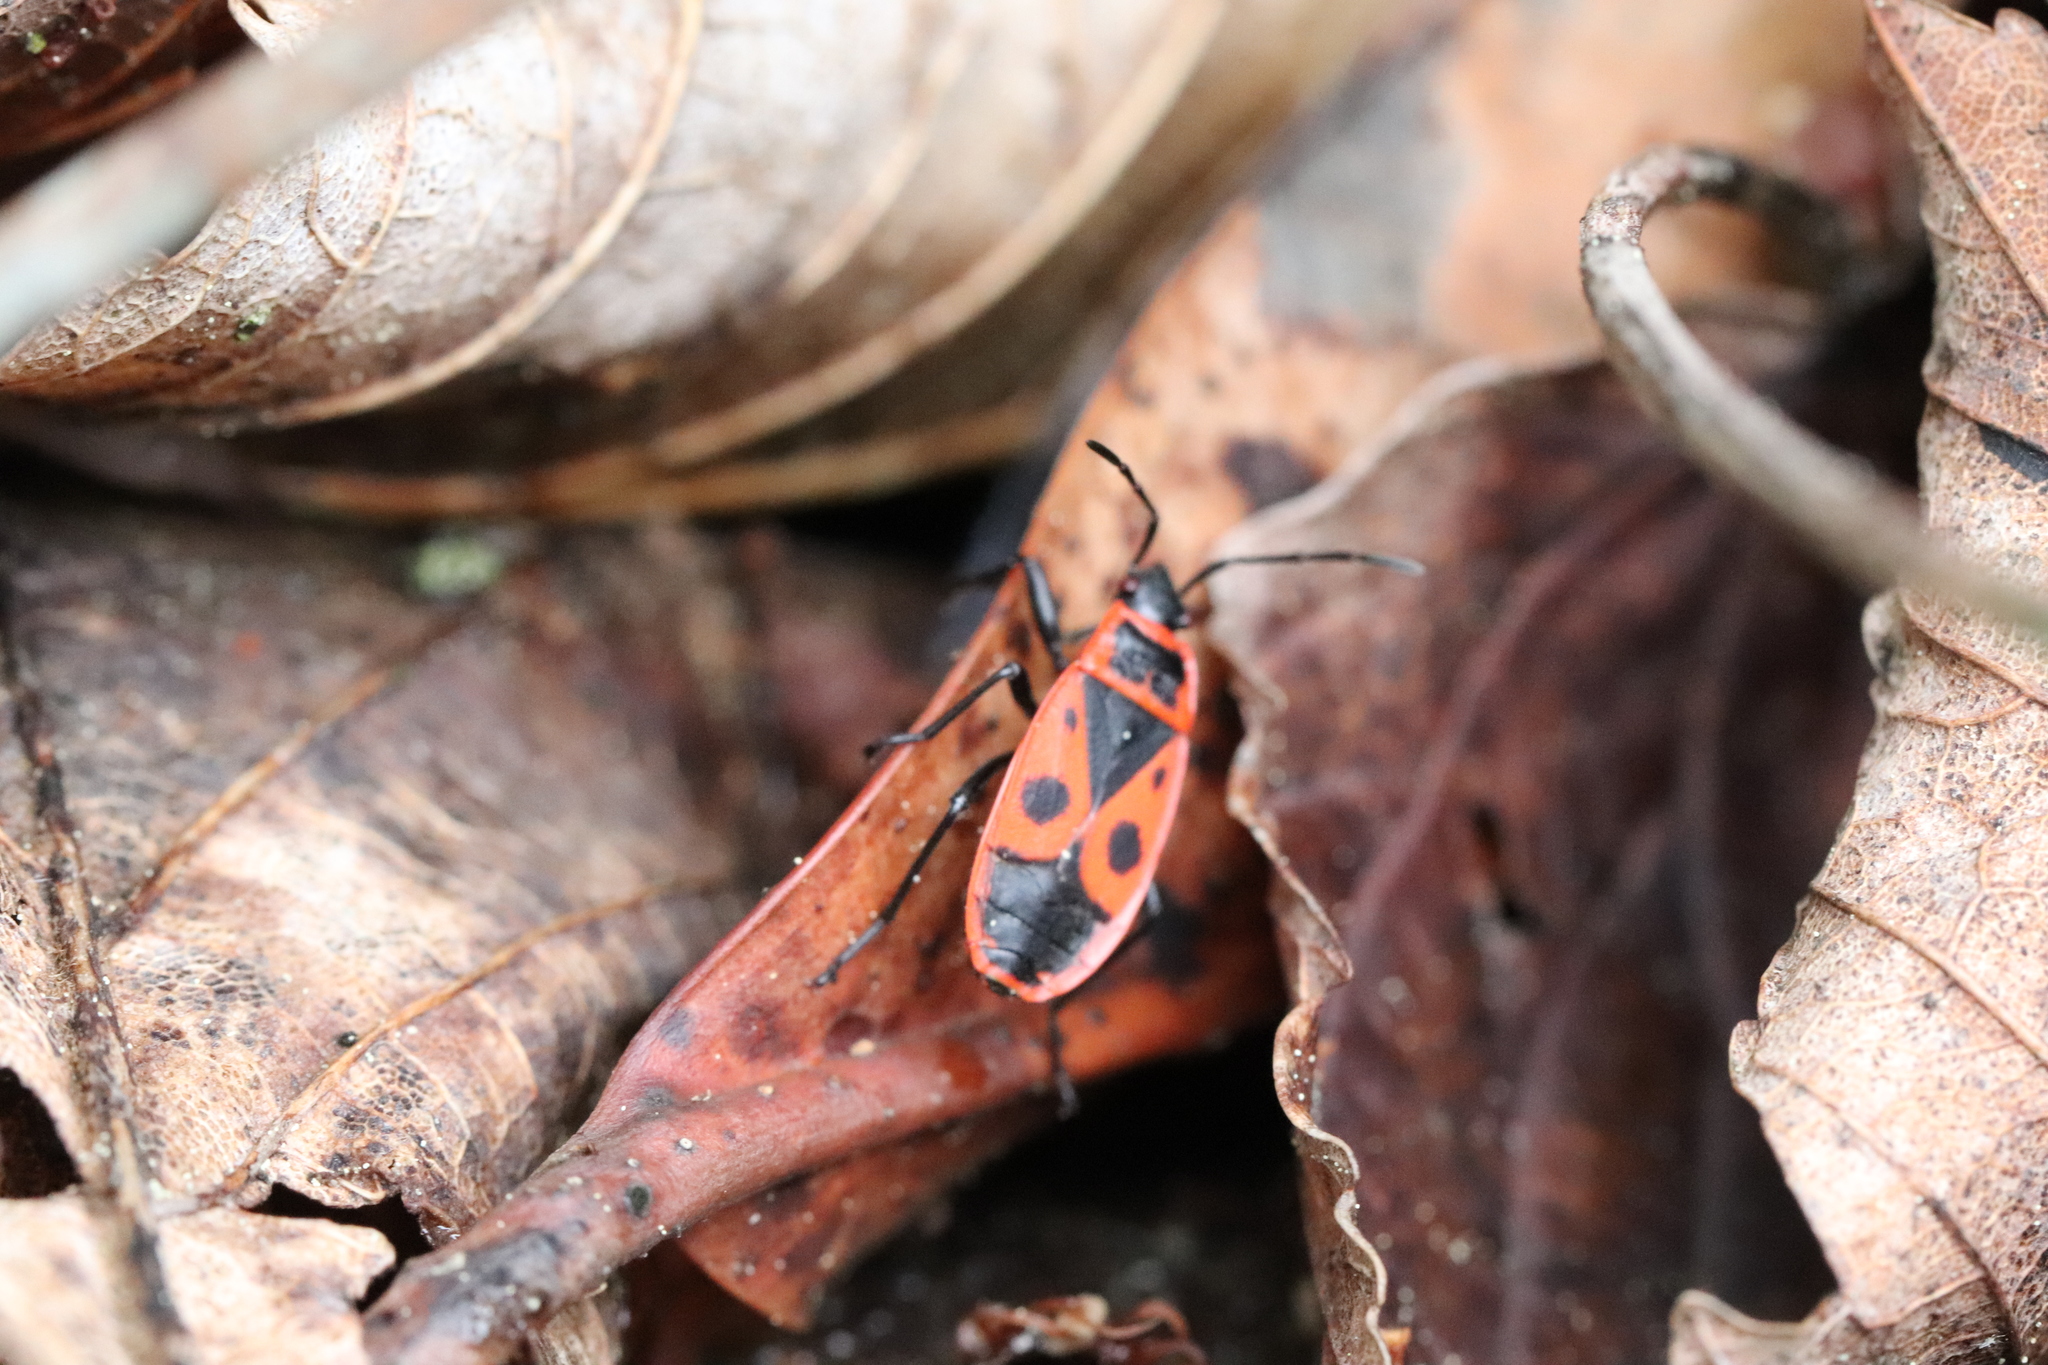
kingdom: Animalia
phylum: Arthropoda
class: Insecta
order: Hemiptera
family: Pyrrhocoridae
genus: Pyrrhocoris
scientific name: Pyrrhocoris apterus
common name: Firebug
